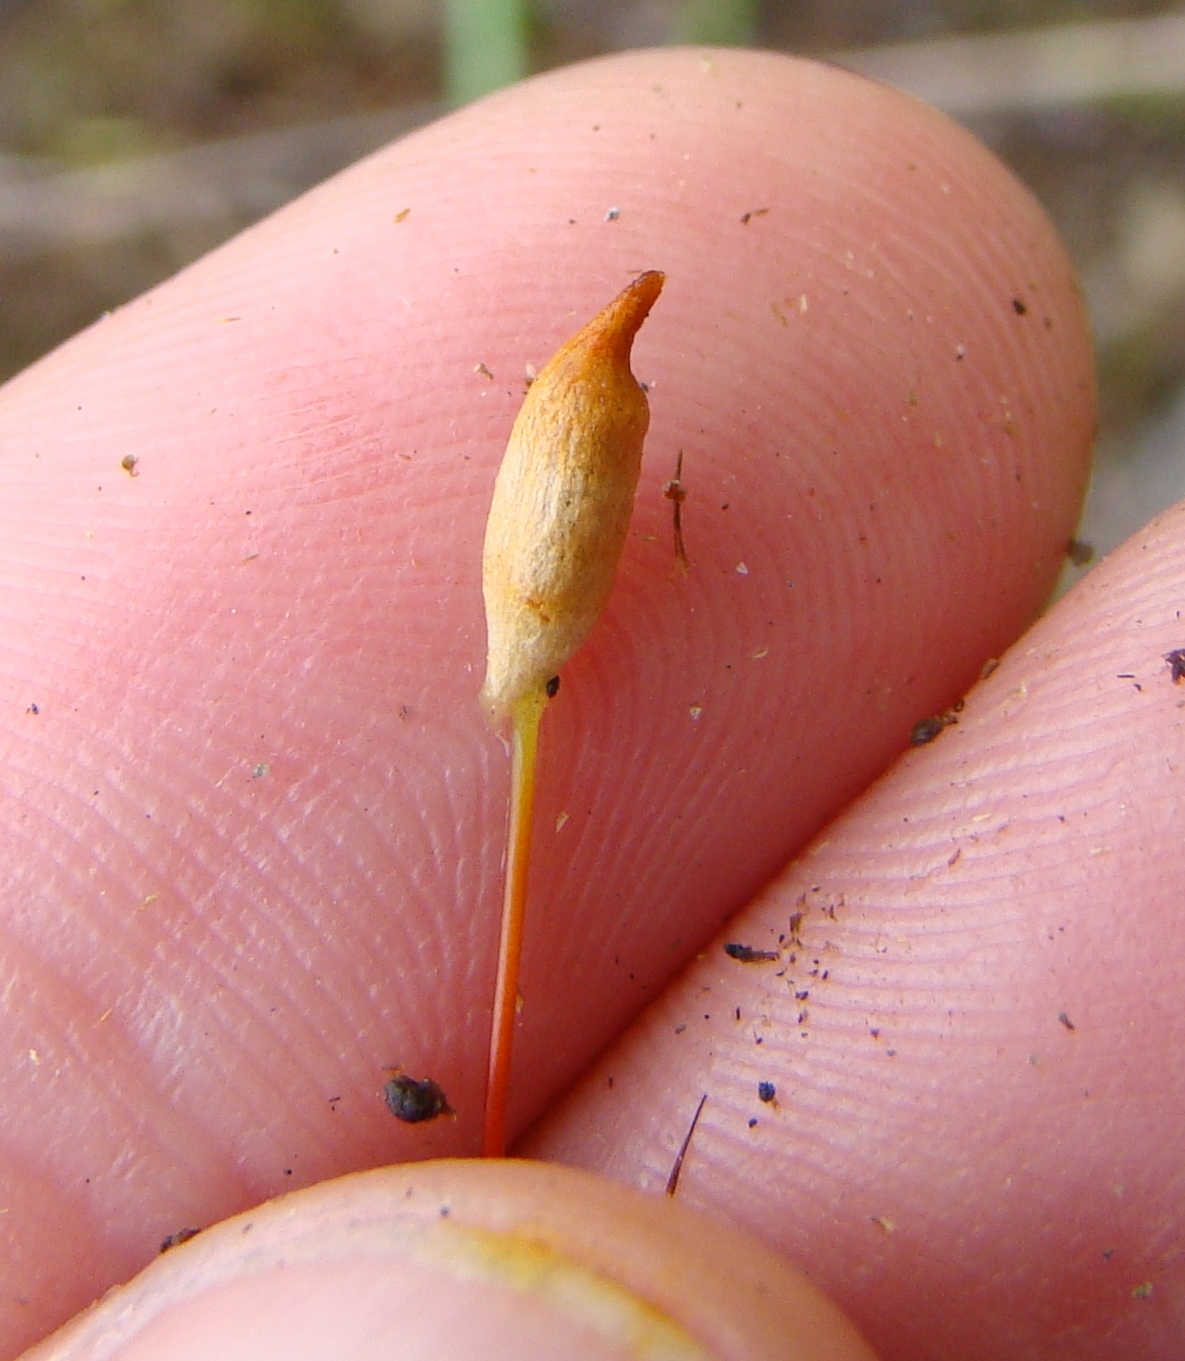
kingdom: Plantae
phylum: Bryophyta
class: Polytrichopsida
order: Polytrichales
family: Polytrichaceae
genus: Polytrichum
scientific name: Polytrichum juniperinum
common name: Juniper haircap moss
